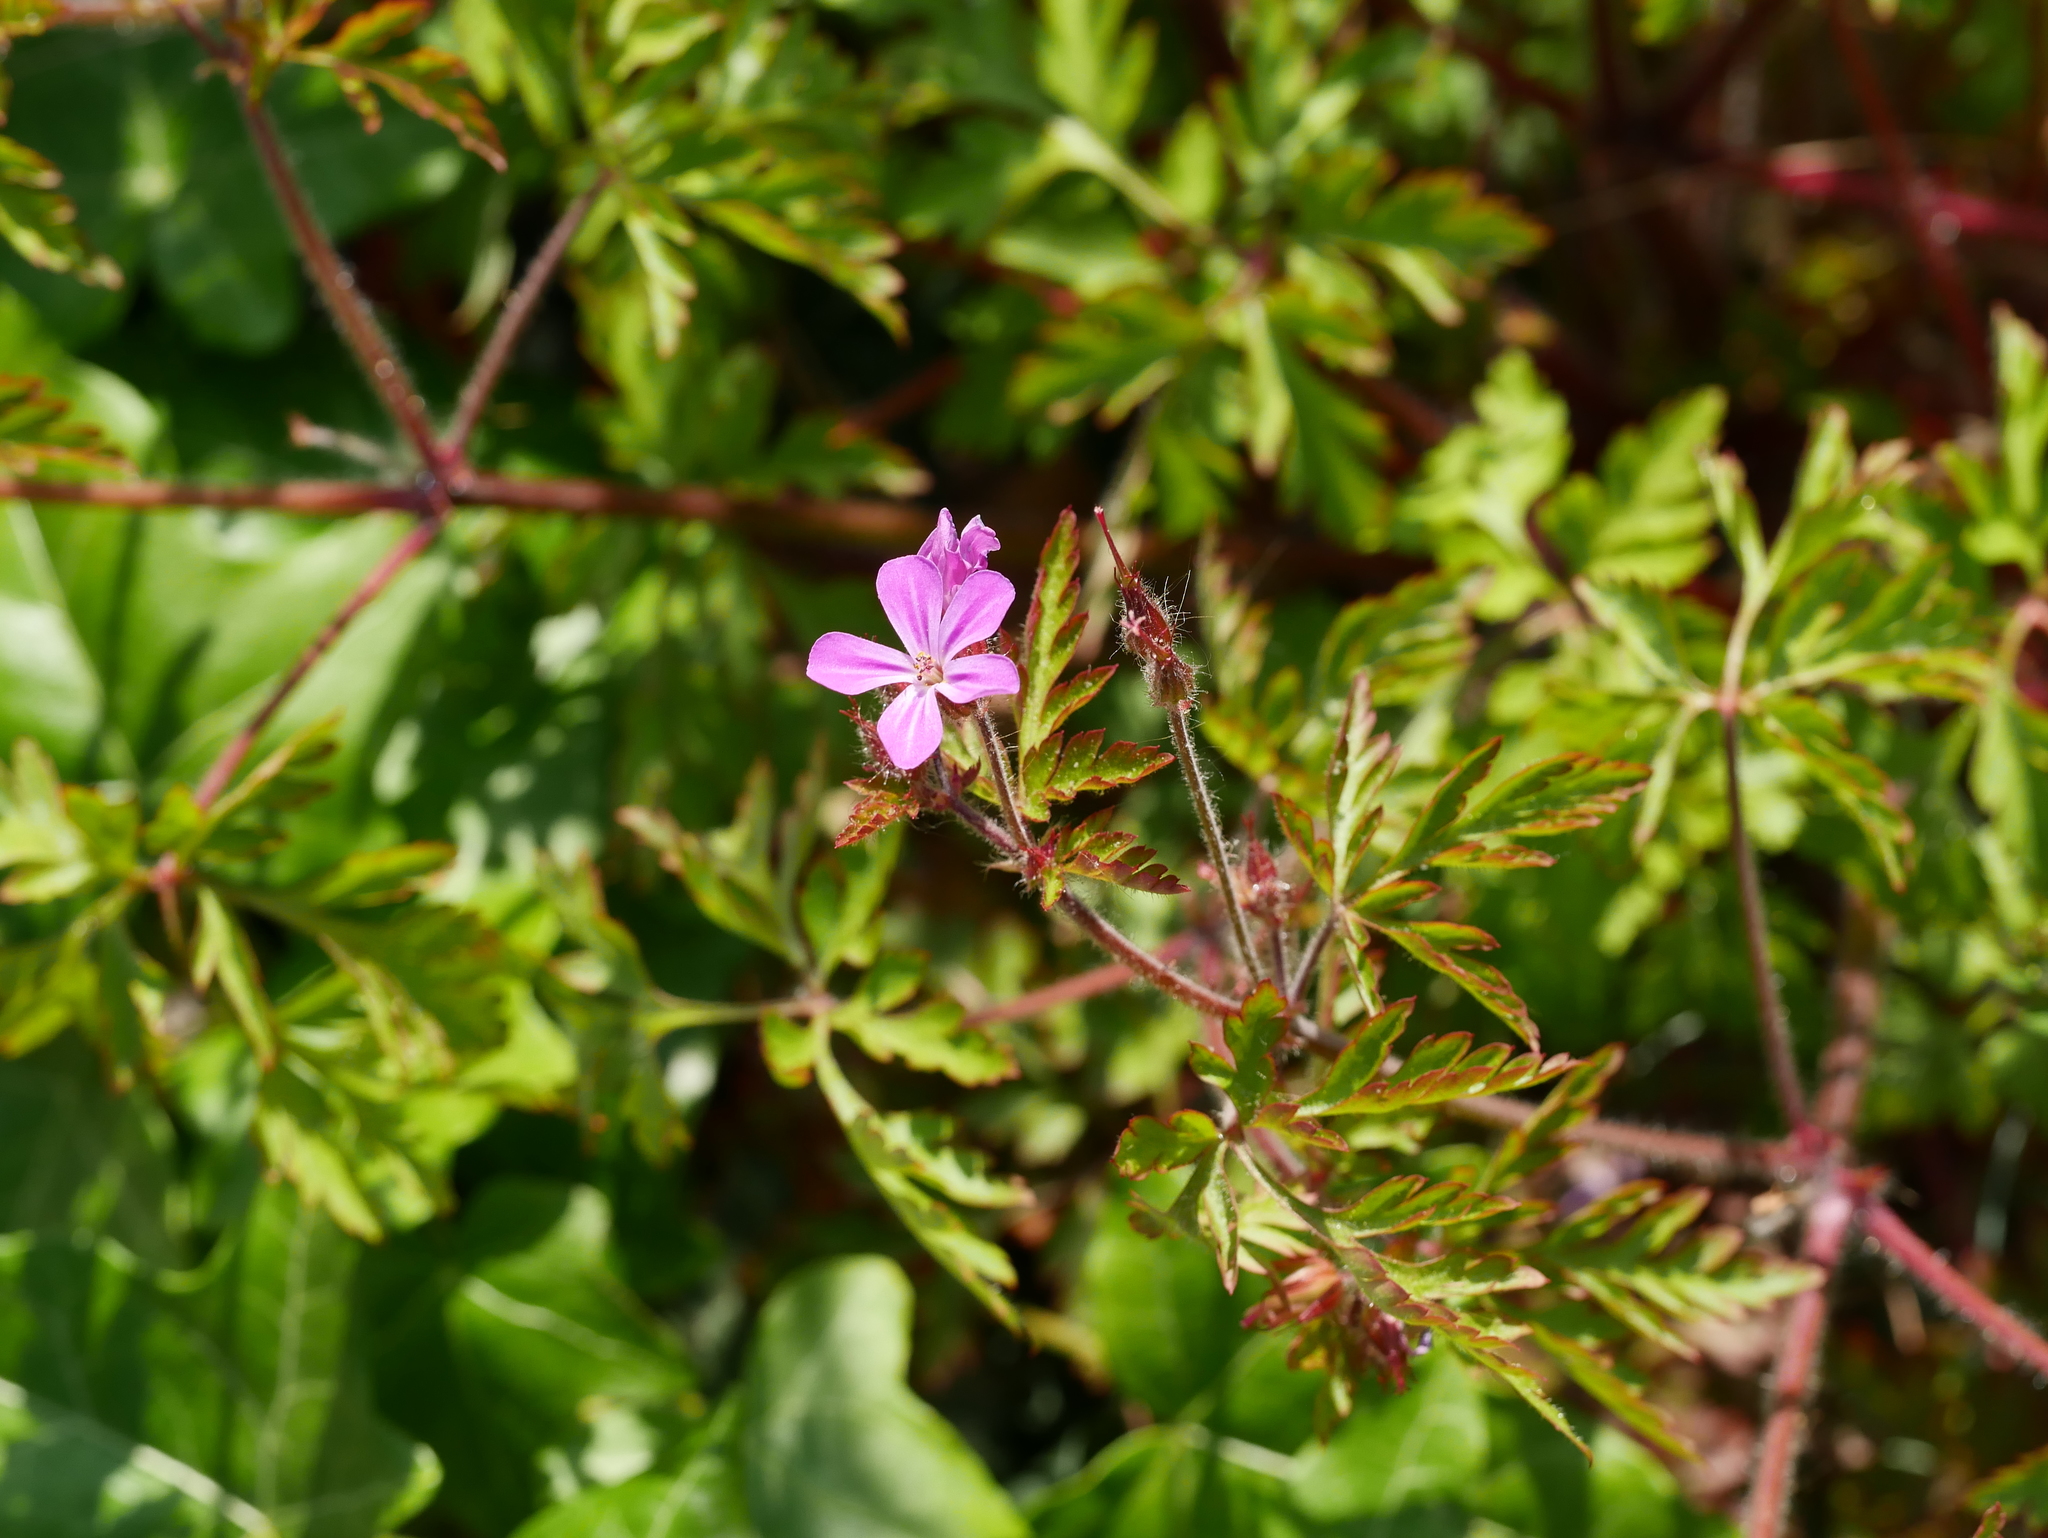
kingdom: Plantae
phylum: Tracheophyta
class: Magnoliopsida
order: Geraniales
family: Geraniaceae
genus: Geranium
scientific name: Geranium robertianum
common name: Herb-robert
